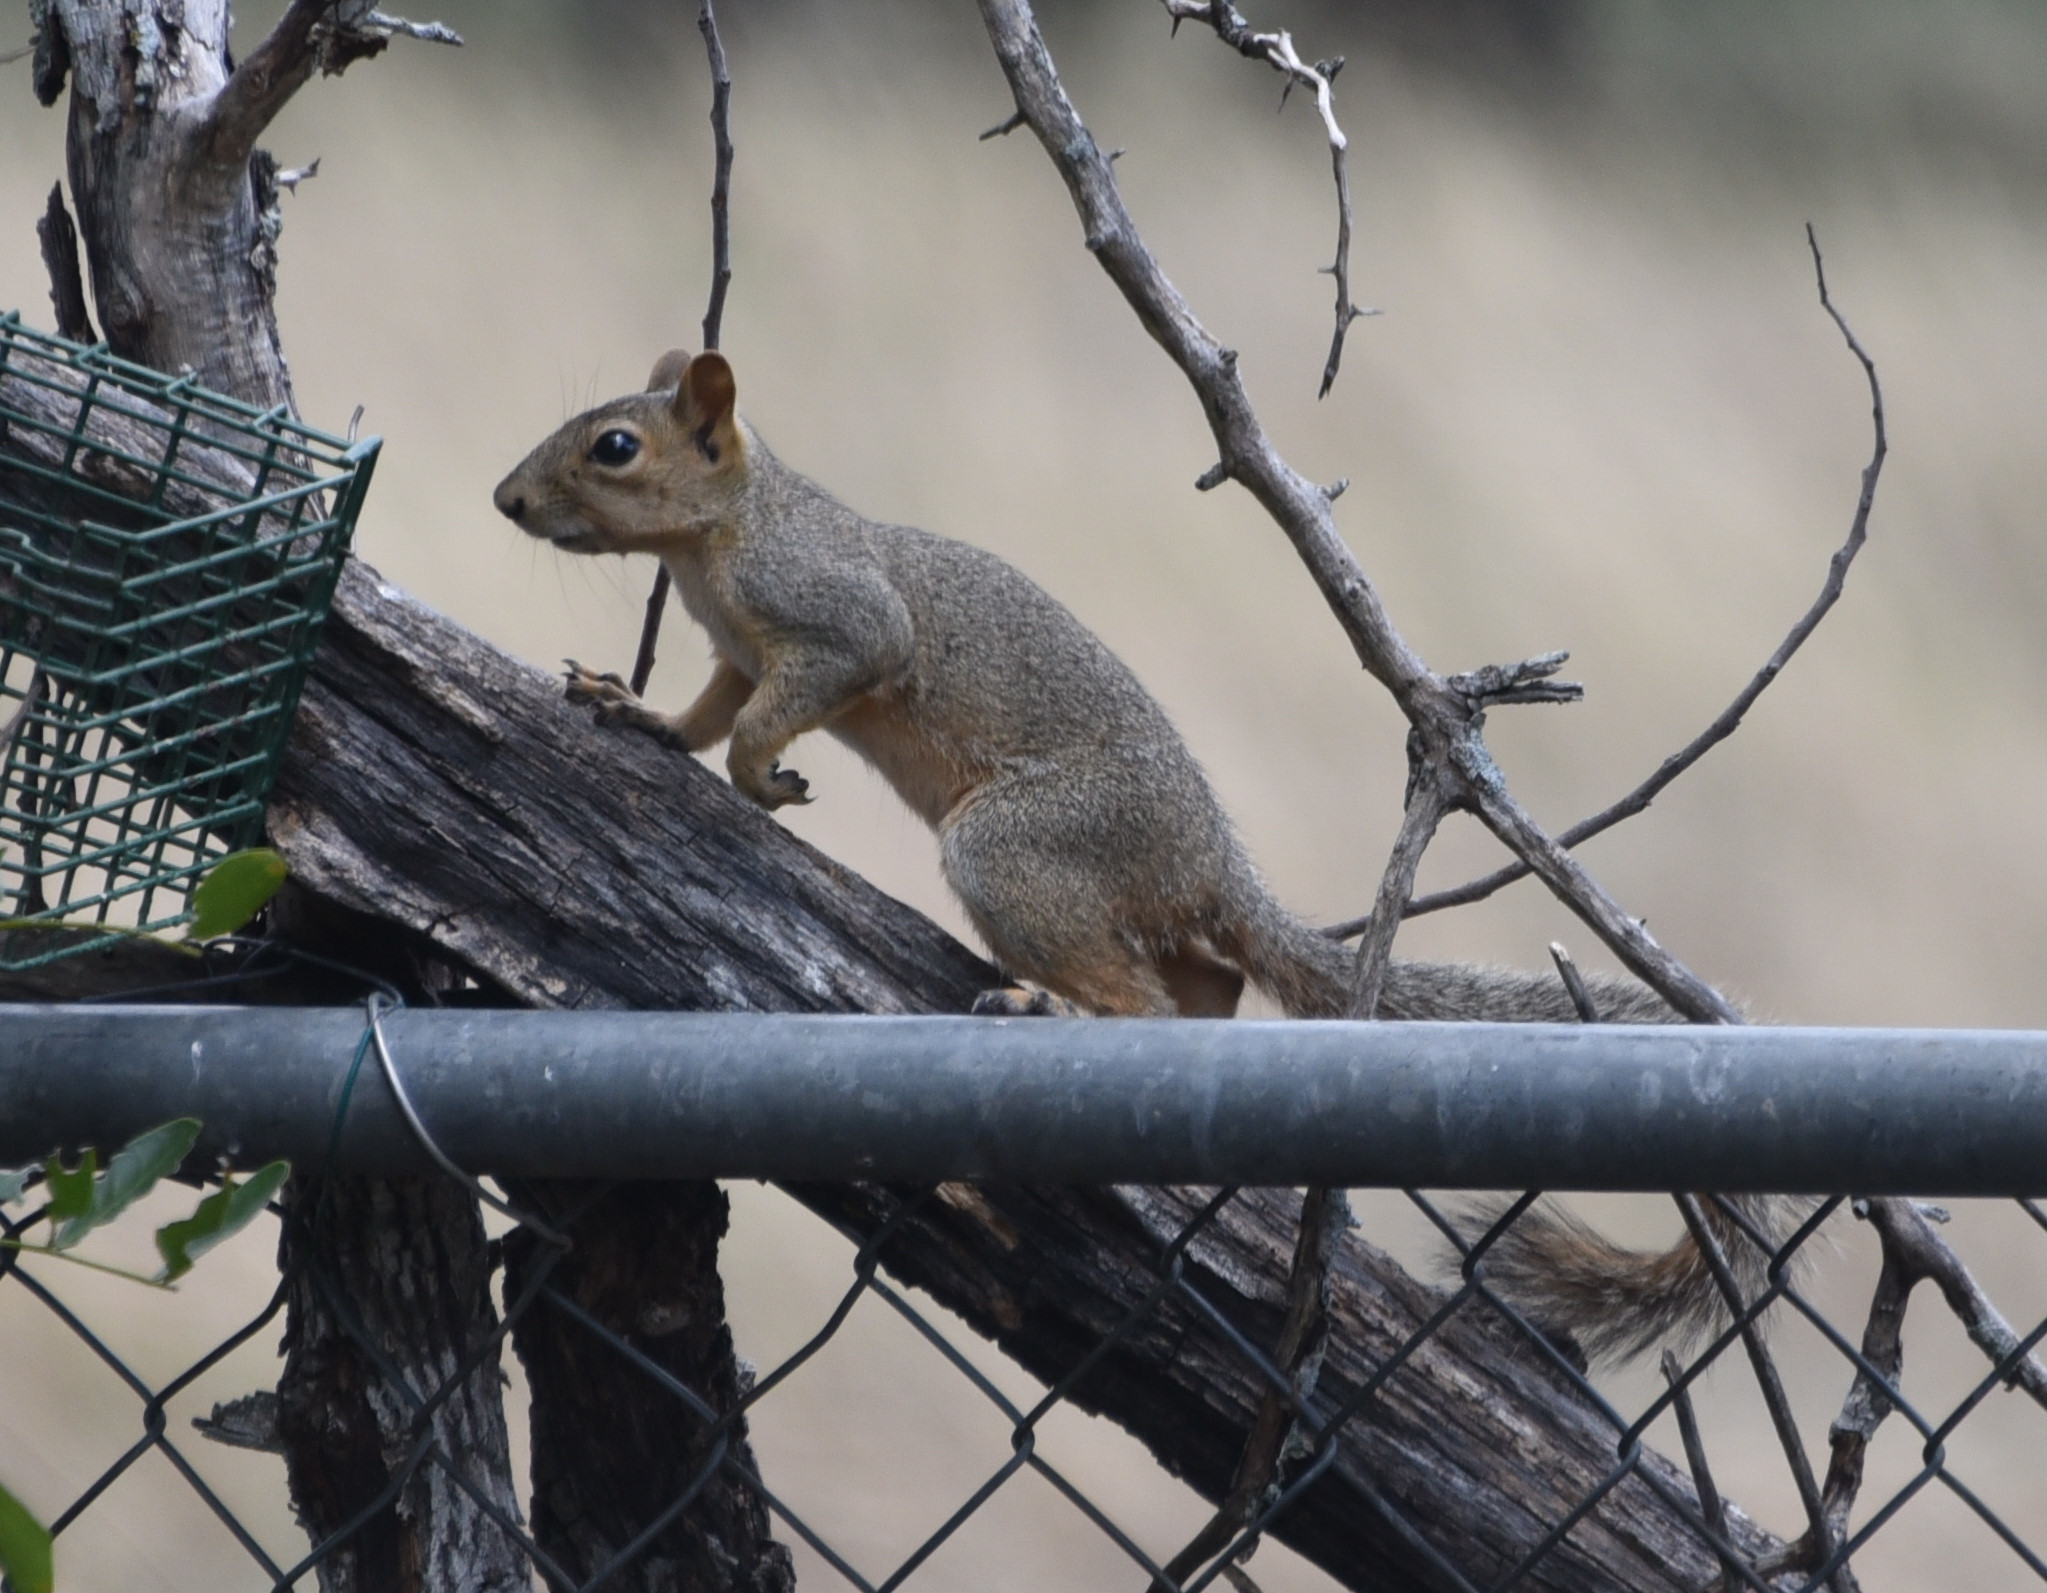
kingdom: Animalia
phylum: Chordata
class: Mammalia
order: Rodentia
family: Sciuridae
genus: Sciurus
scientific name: Sciurus niger
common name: Fox squirrel
